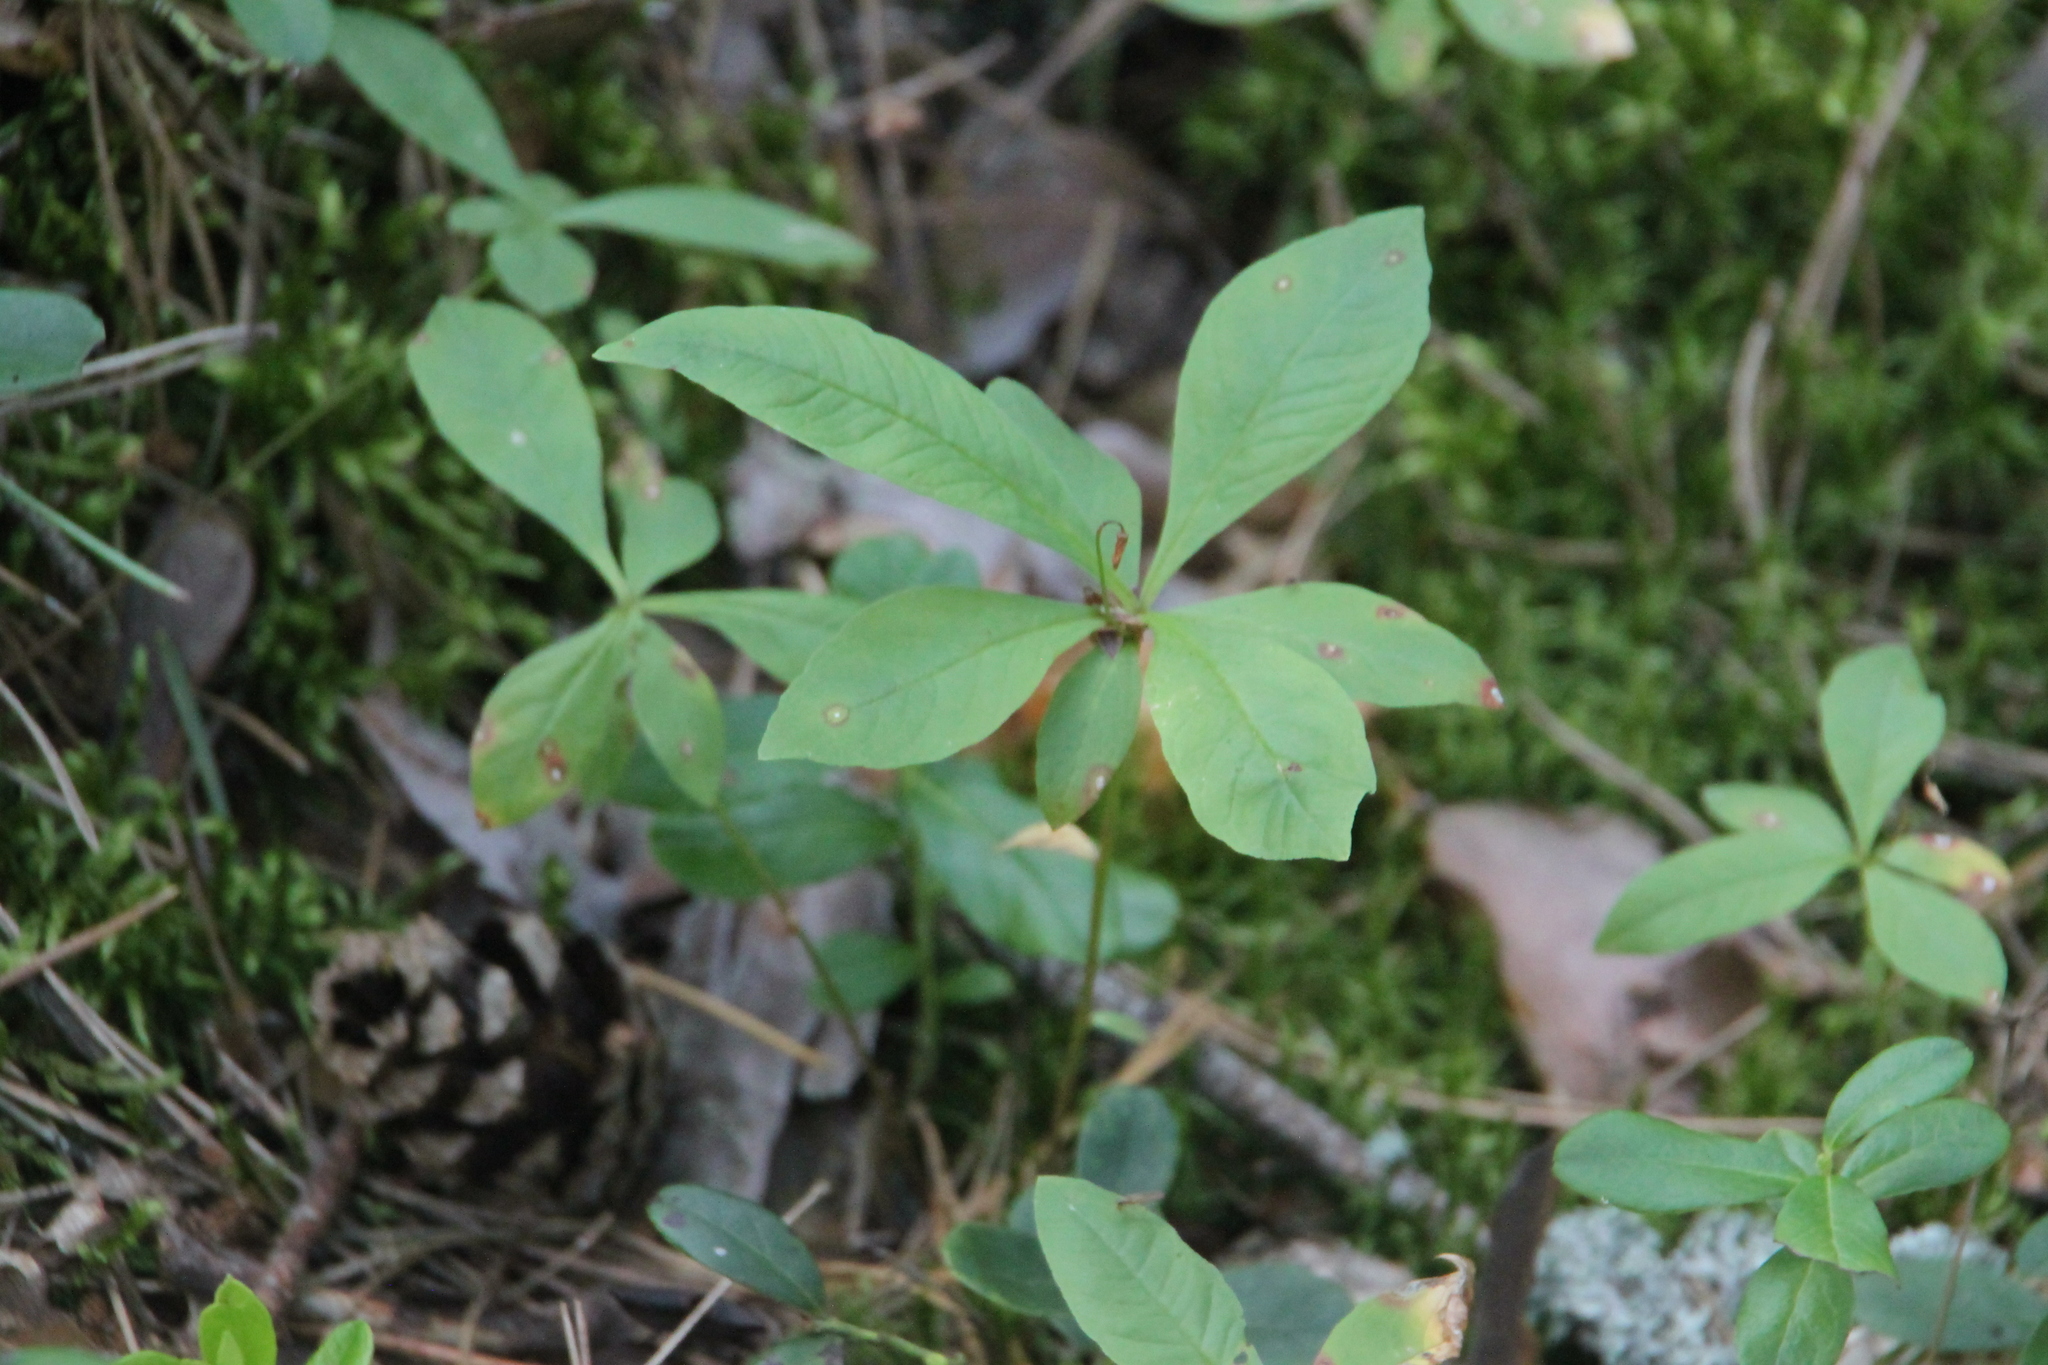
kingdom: Plantae
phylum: Tracheophyta
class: Magnoliopsida
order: Ericales
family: Primulaceae
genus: Lysimachia
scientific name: Lysimachia europaea
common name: Arctic starflower
